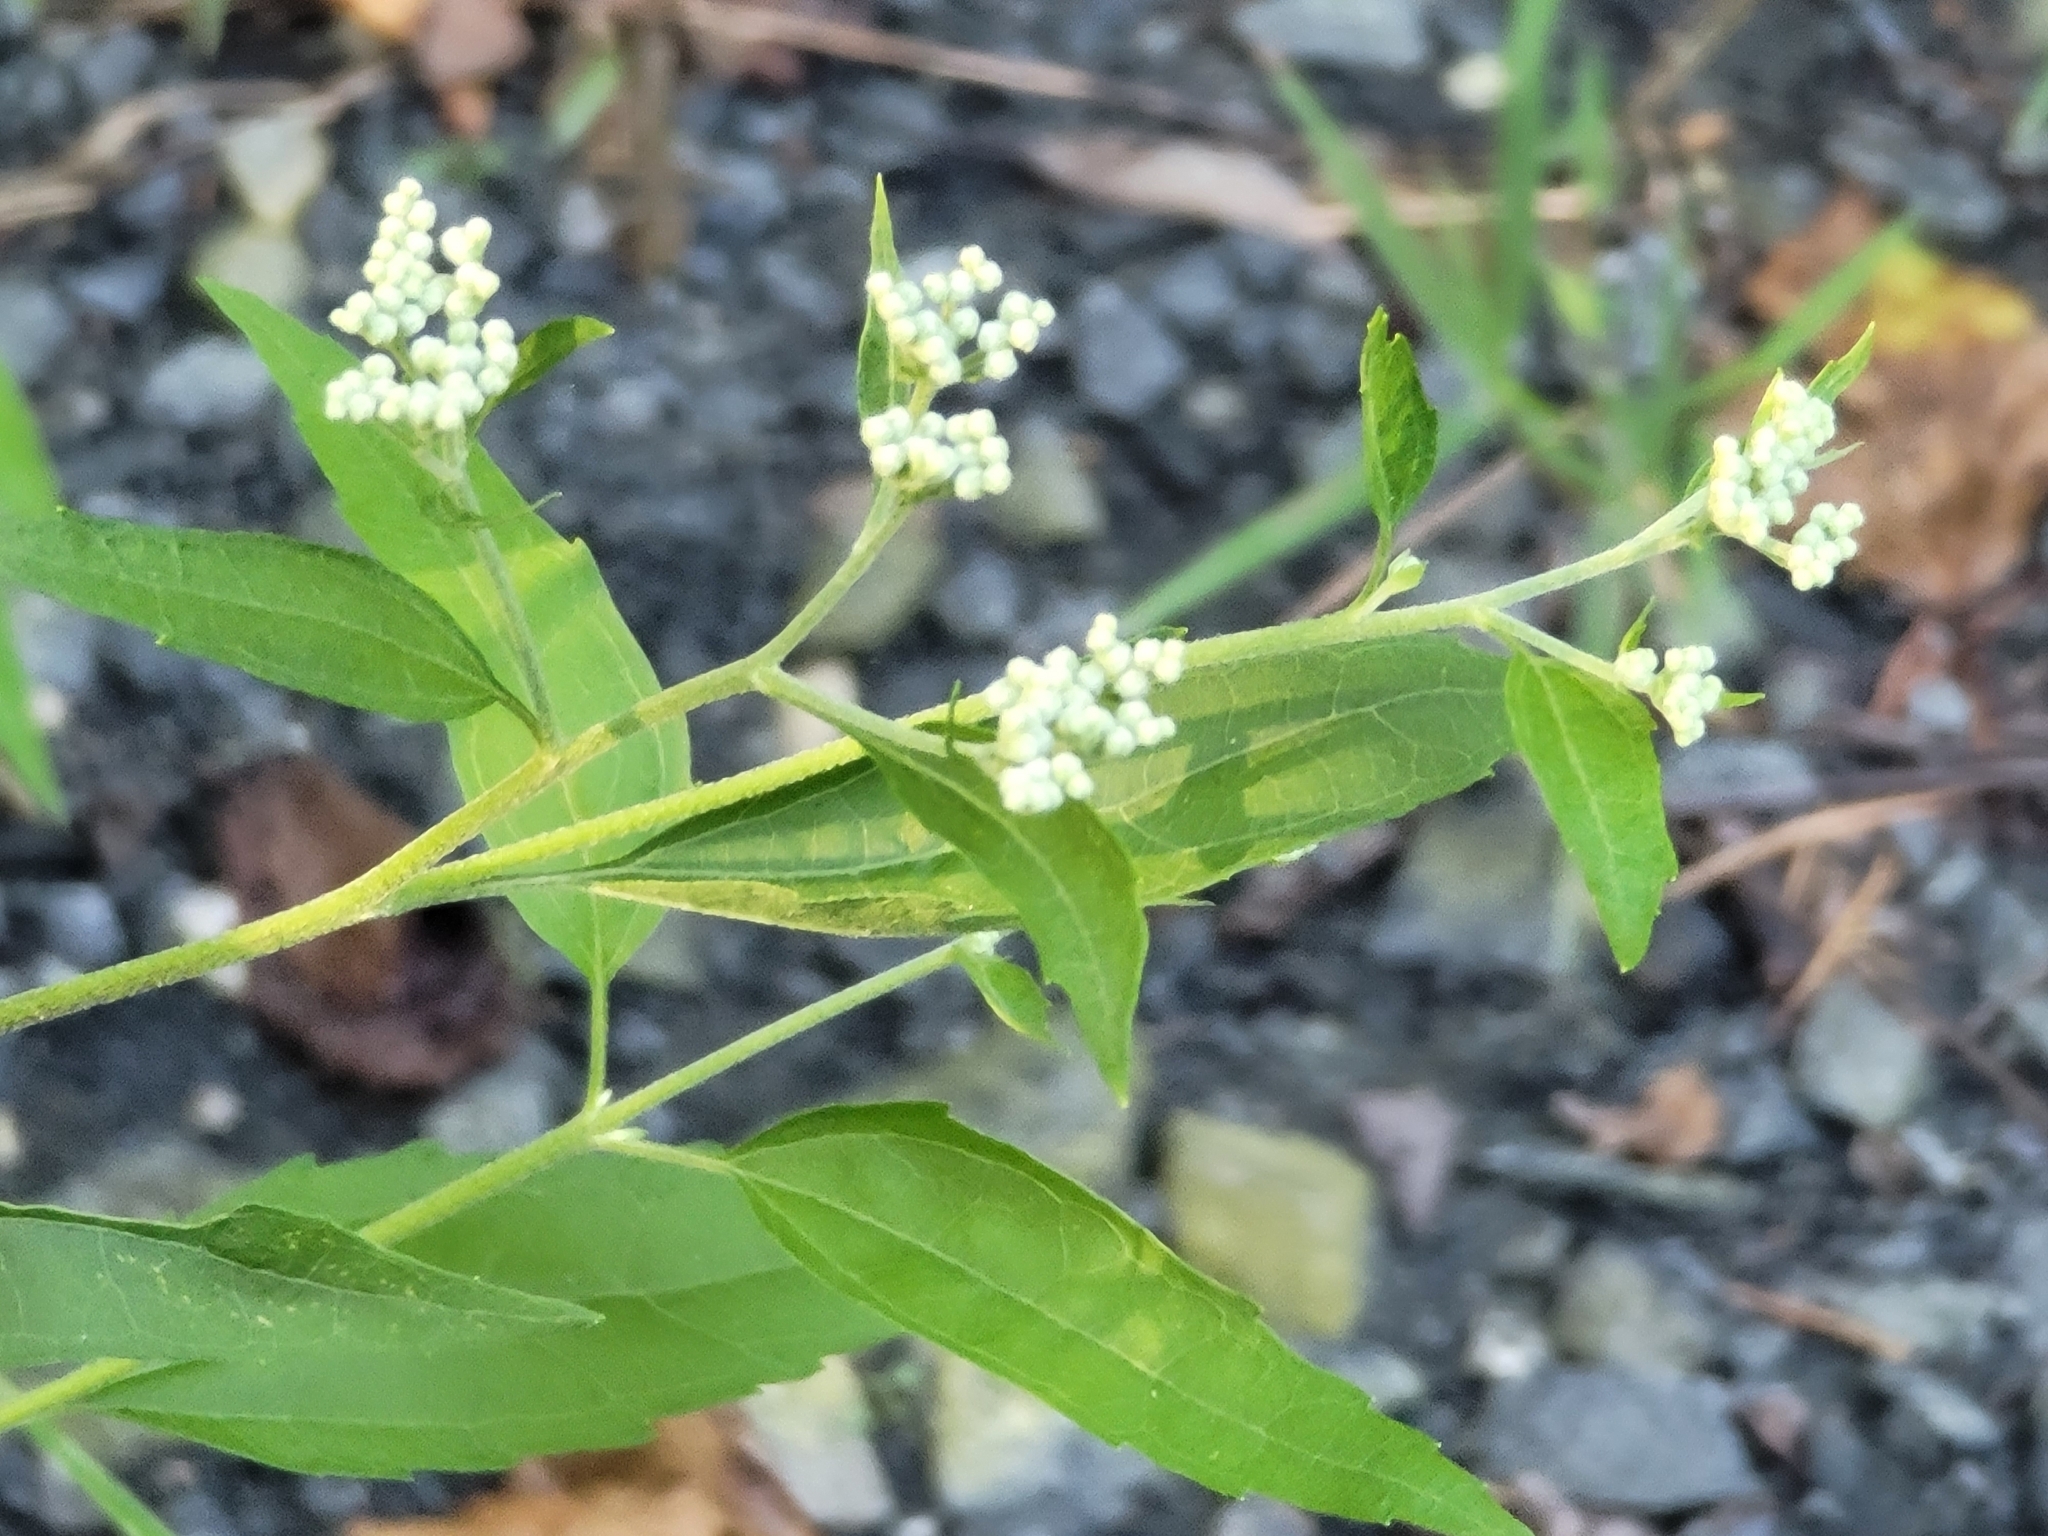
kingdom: Plantae
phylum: Tracheophyta
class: Magnoliopsida
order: Asterales
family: Asteraceae
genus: Eupatorium
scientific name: Eupatorium serotinum
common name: Late boneset
